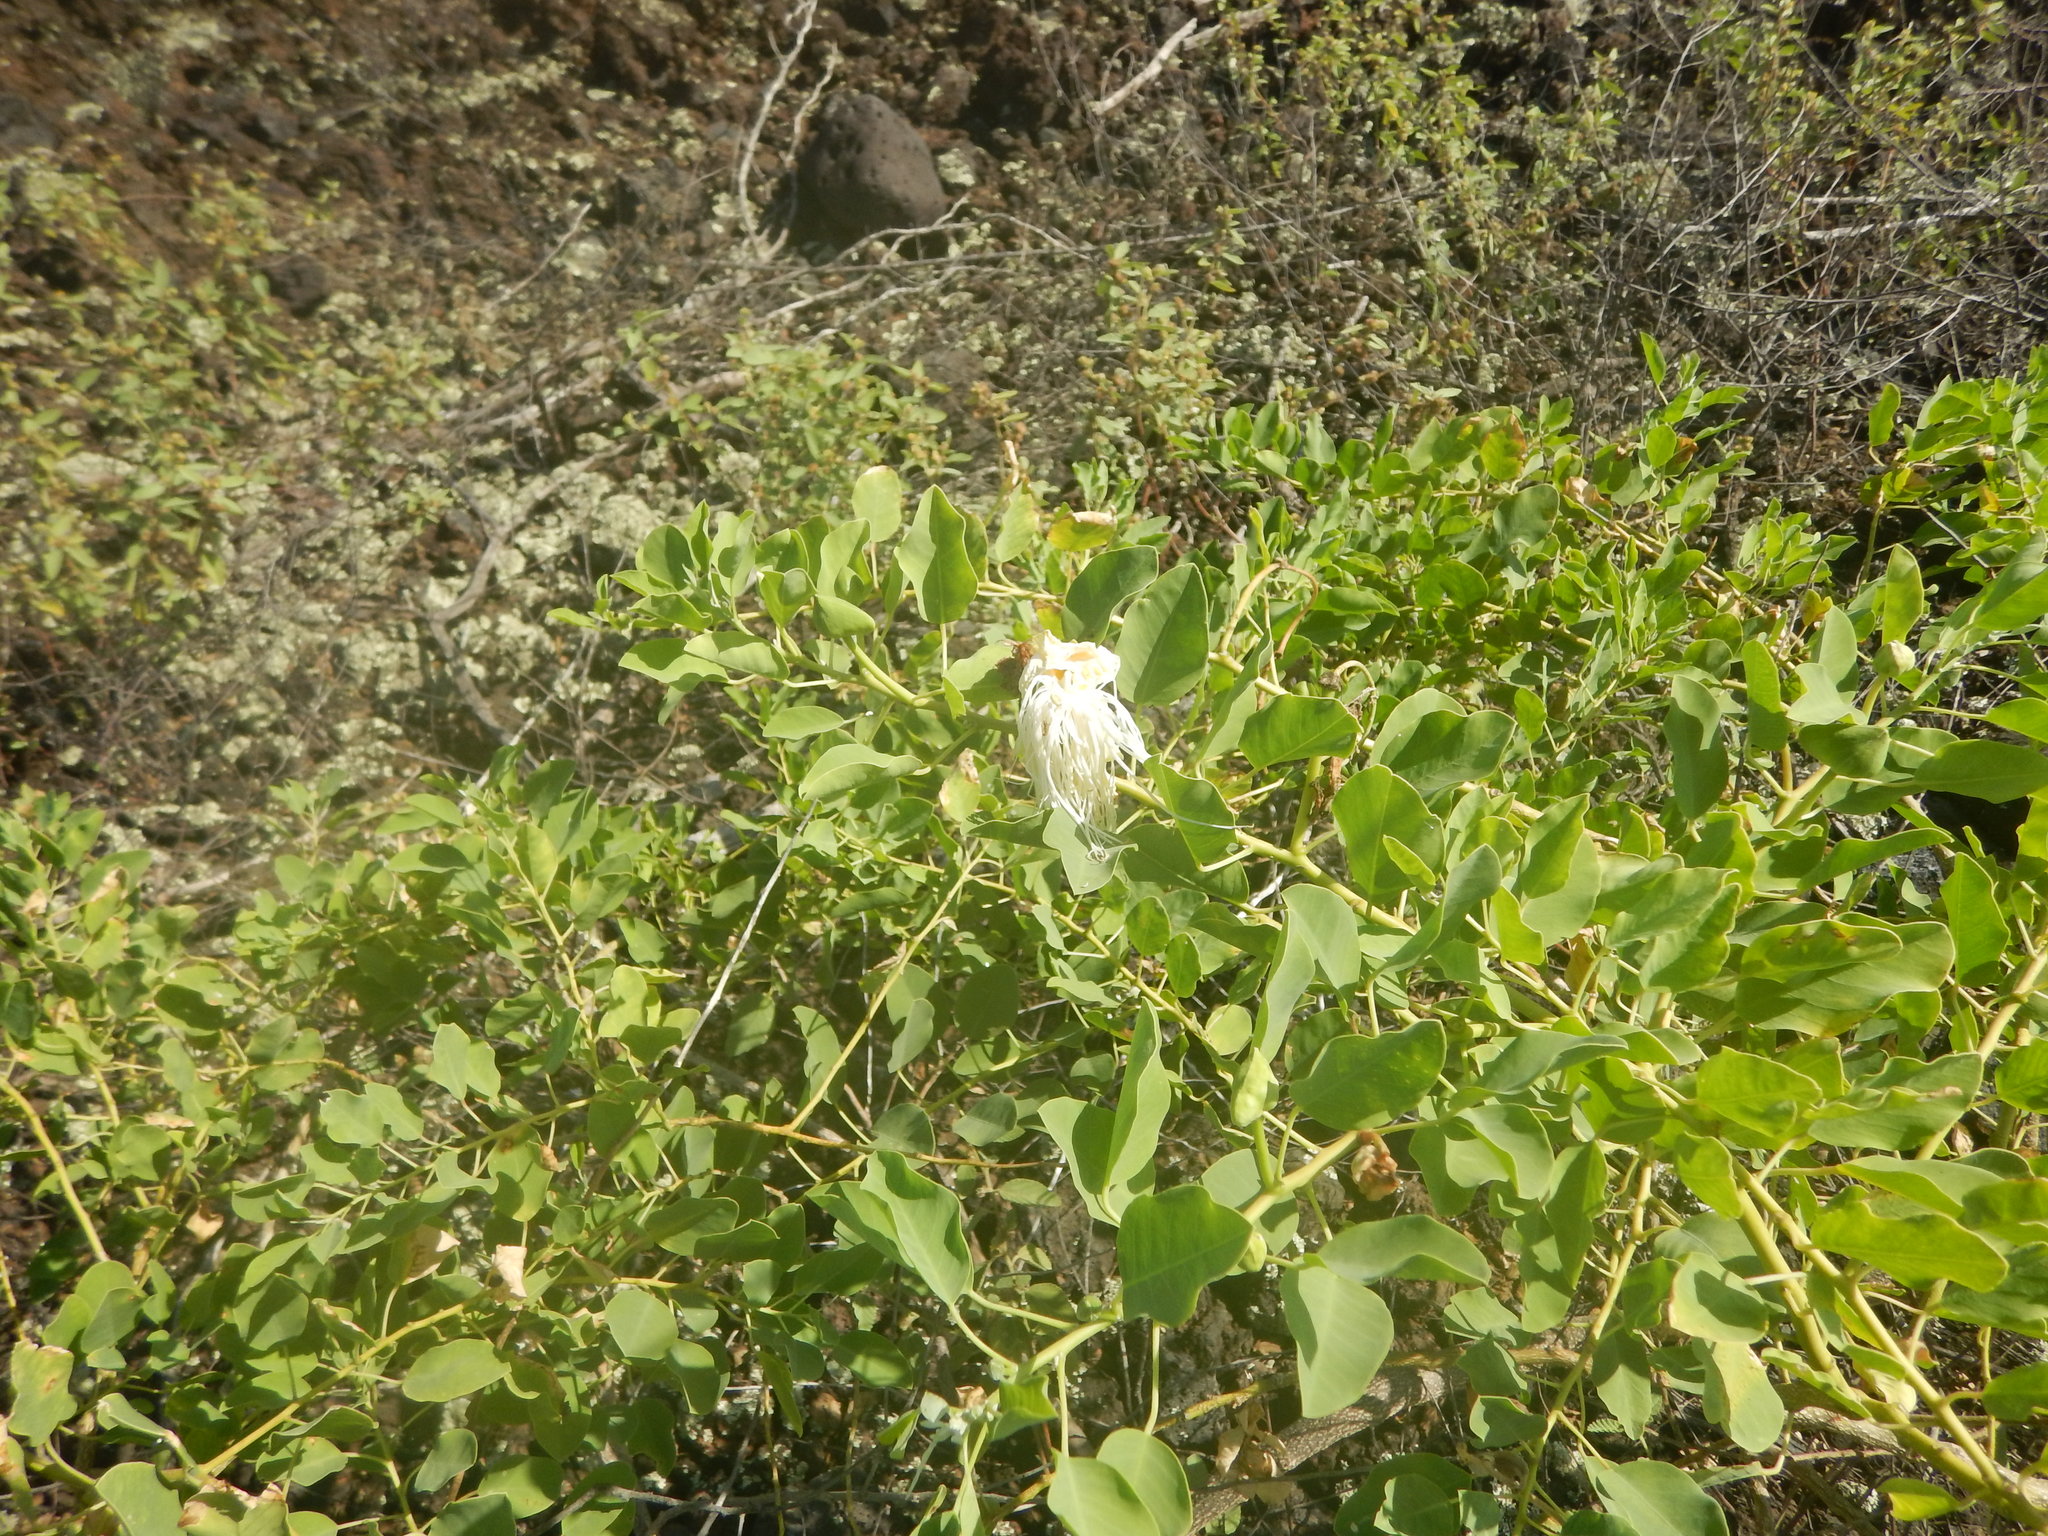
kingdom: Plantae
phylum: Tracheophyta
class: Magnoliopsida
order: Brassicales
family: Capparaceae
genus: Capparis
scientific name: Capparis spinosa
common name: Caper
